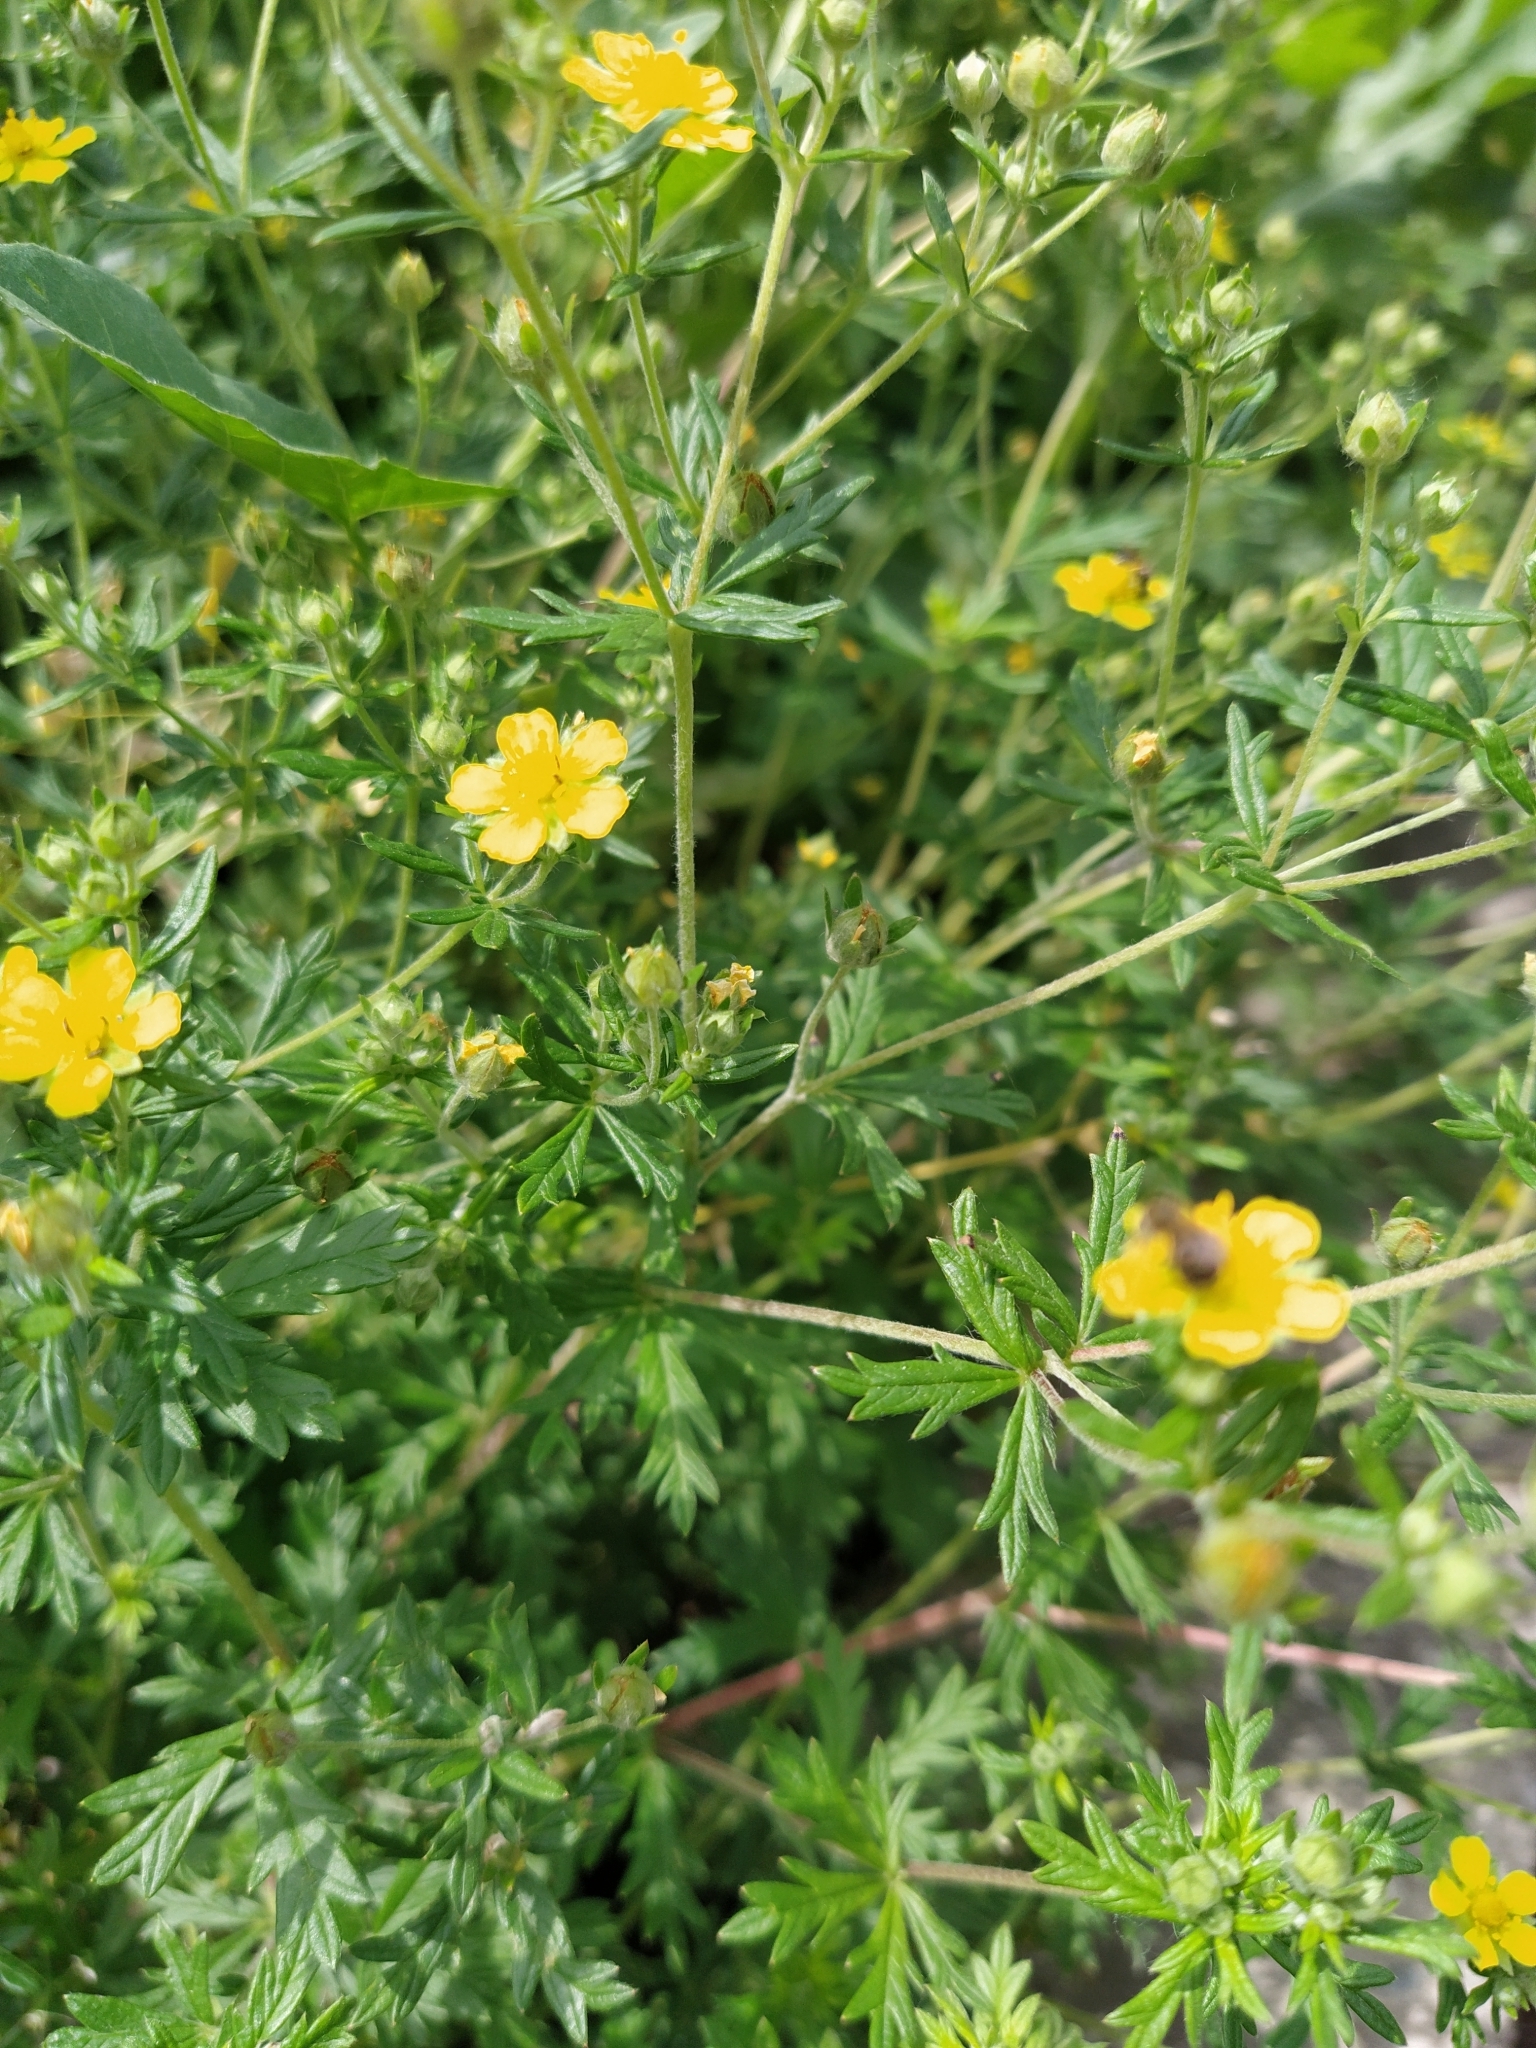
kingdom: Plantae
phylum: Tracheophyta
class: Magnoliopsida
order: Rosales
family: Rosaceae
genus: Potentilla
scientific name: Potentilla argentea
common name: Hoary cinquefoil
